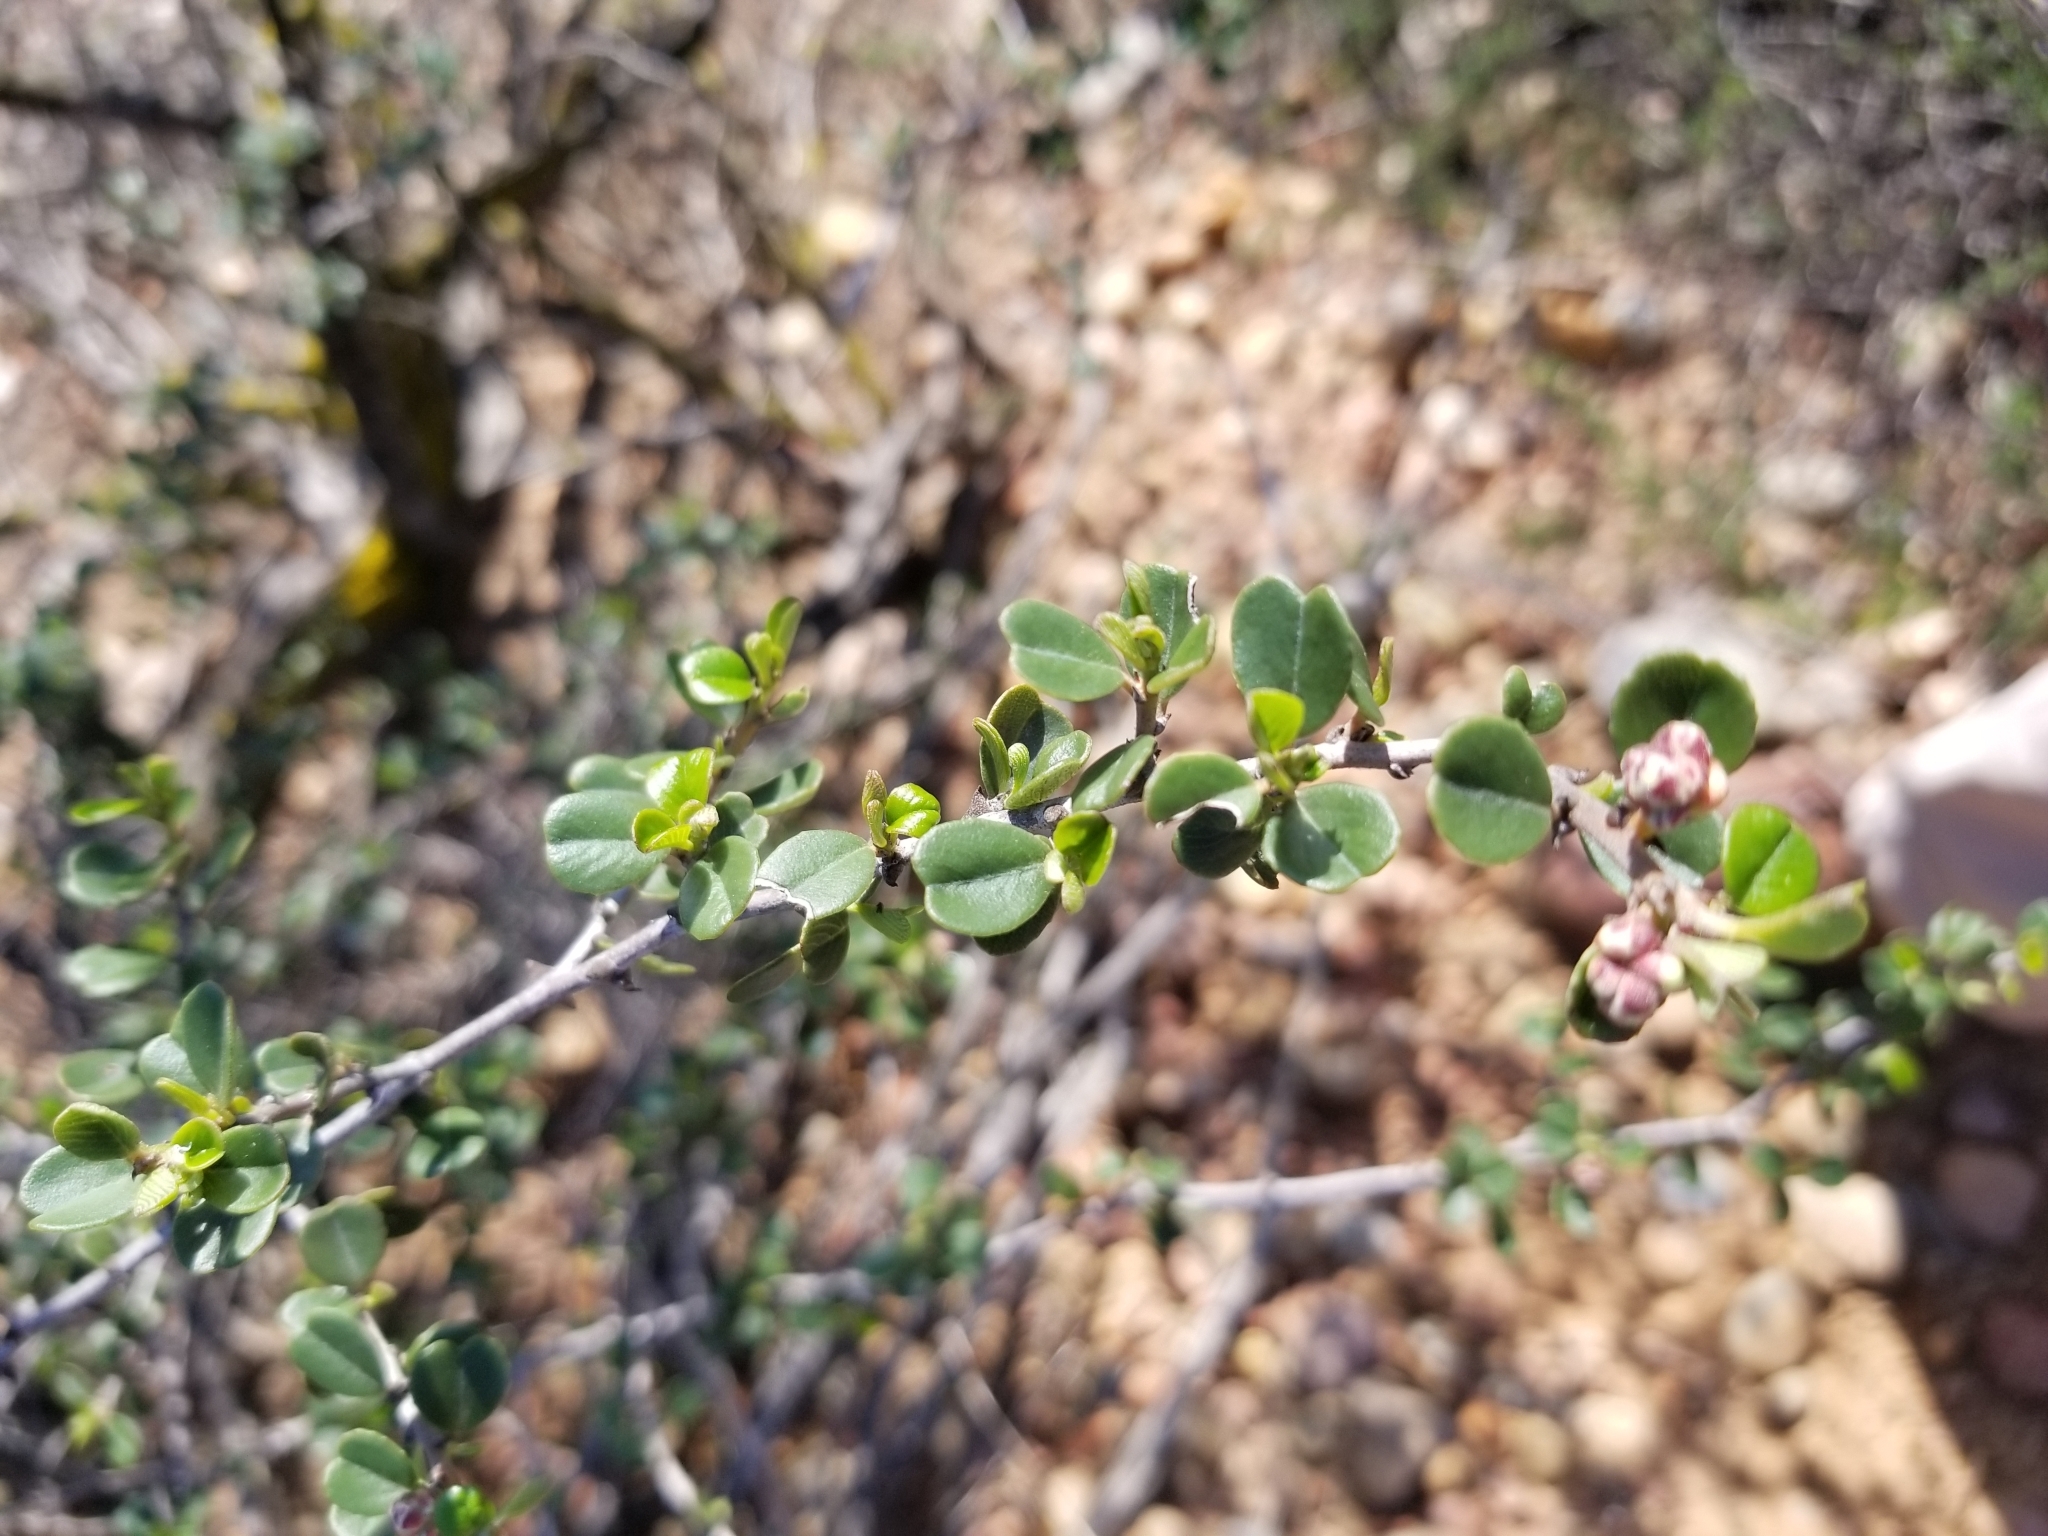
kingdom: Plantae
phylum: Tracheophyta
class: Magnoliopsida
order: Rosales
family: Rhamnaceae
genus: Ceanothus
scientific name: Ceanothus verrucosus
